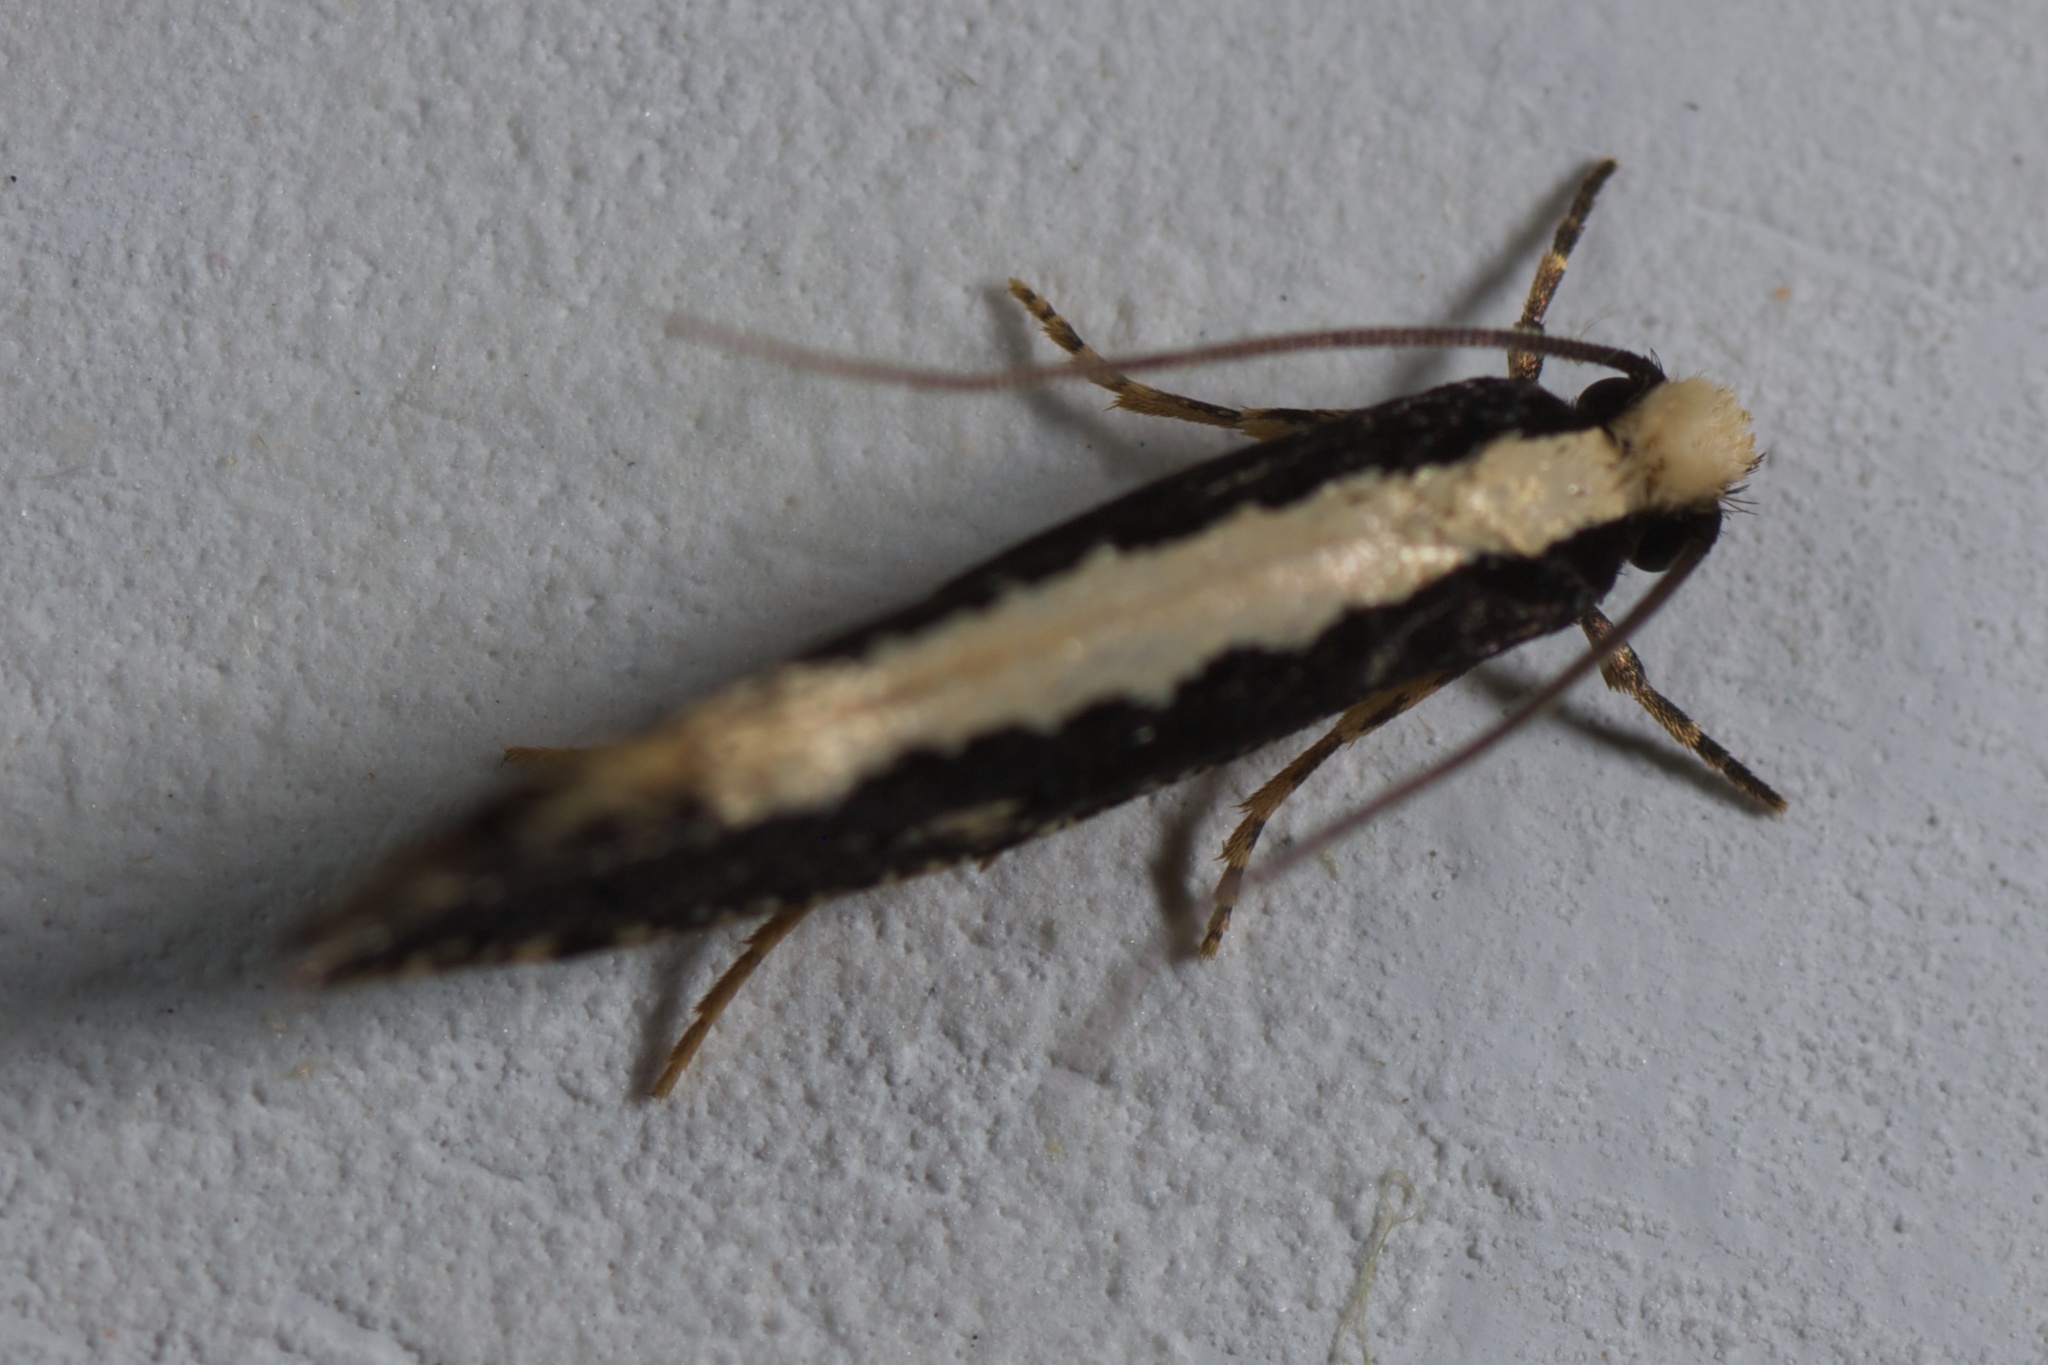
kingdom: Animalia
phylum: Arthropoda
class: Insecta
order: Lepidoptera
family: Tineidae
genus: Monopis
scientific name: Monopis ethelella
